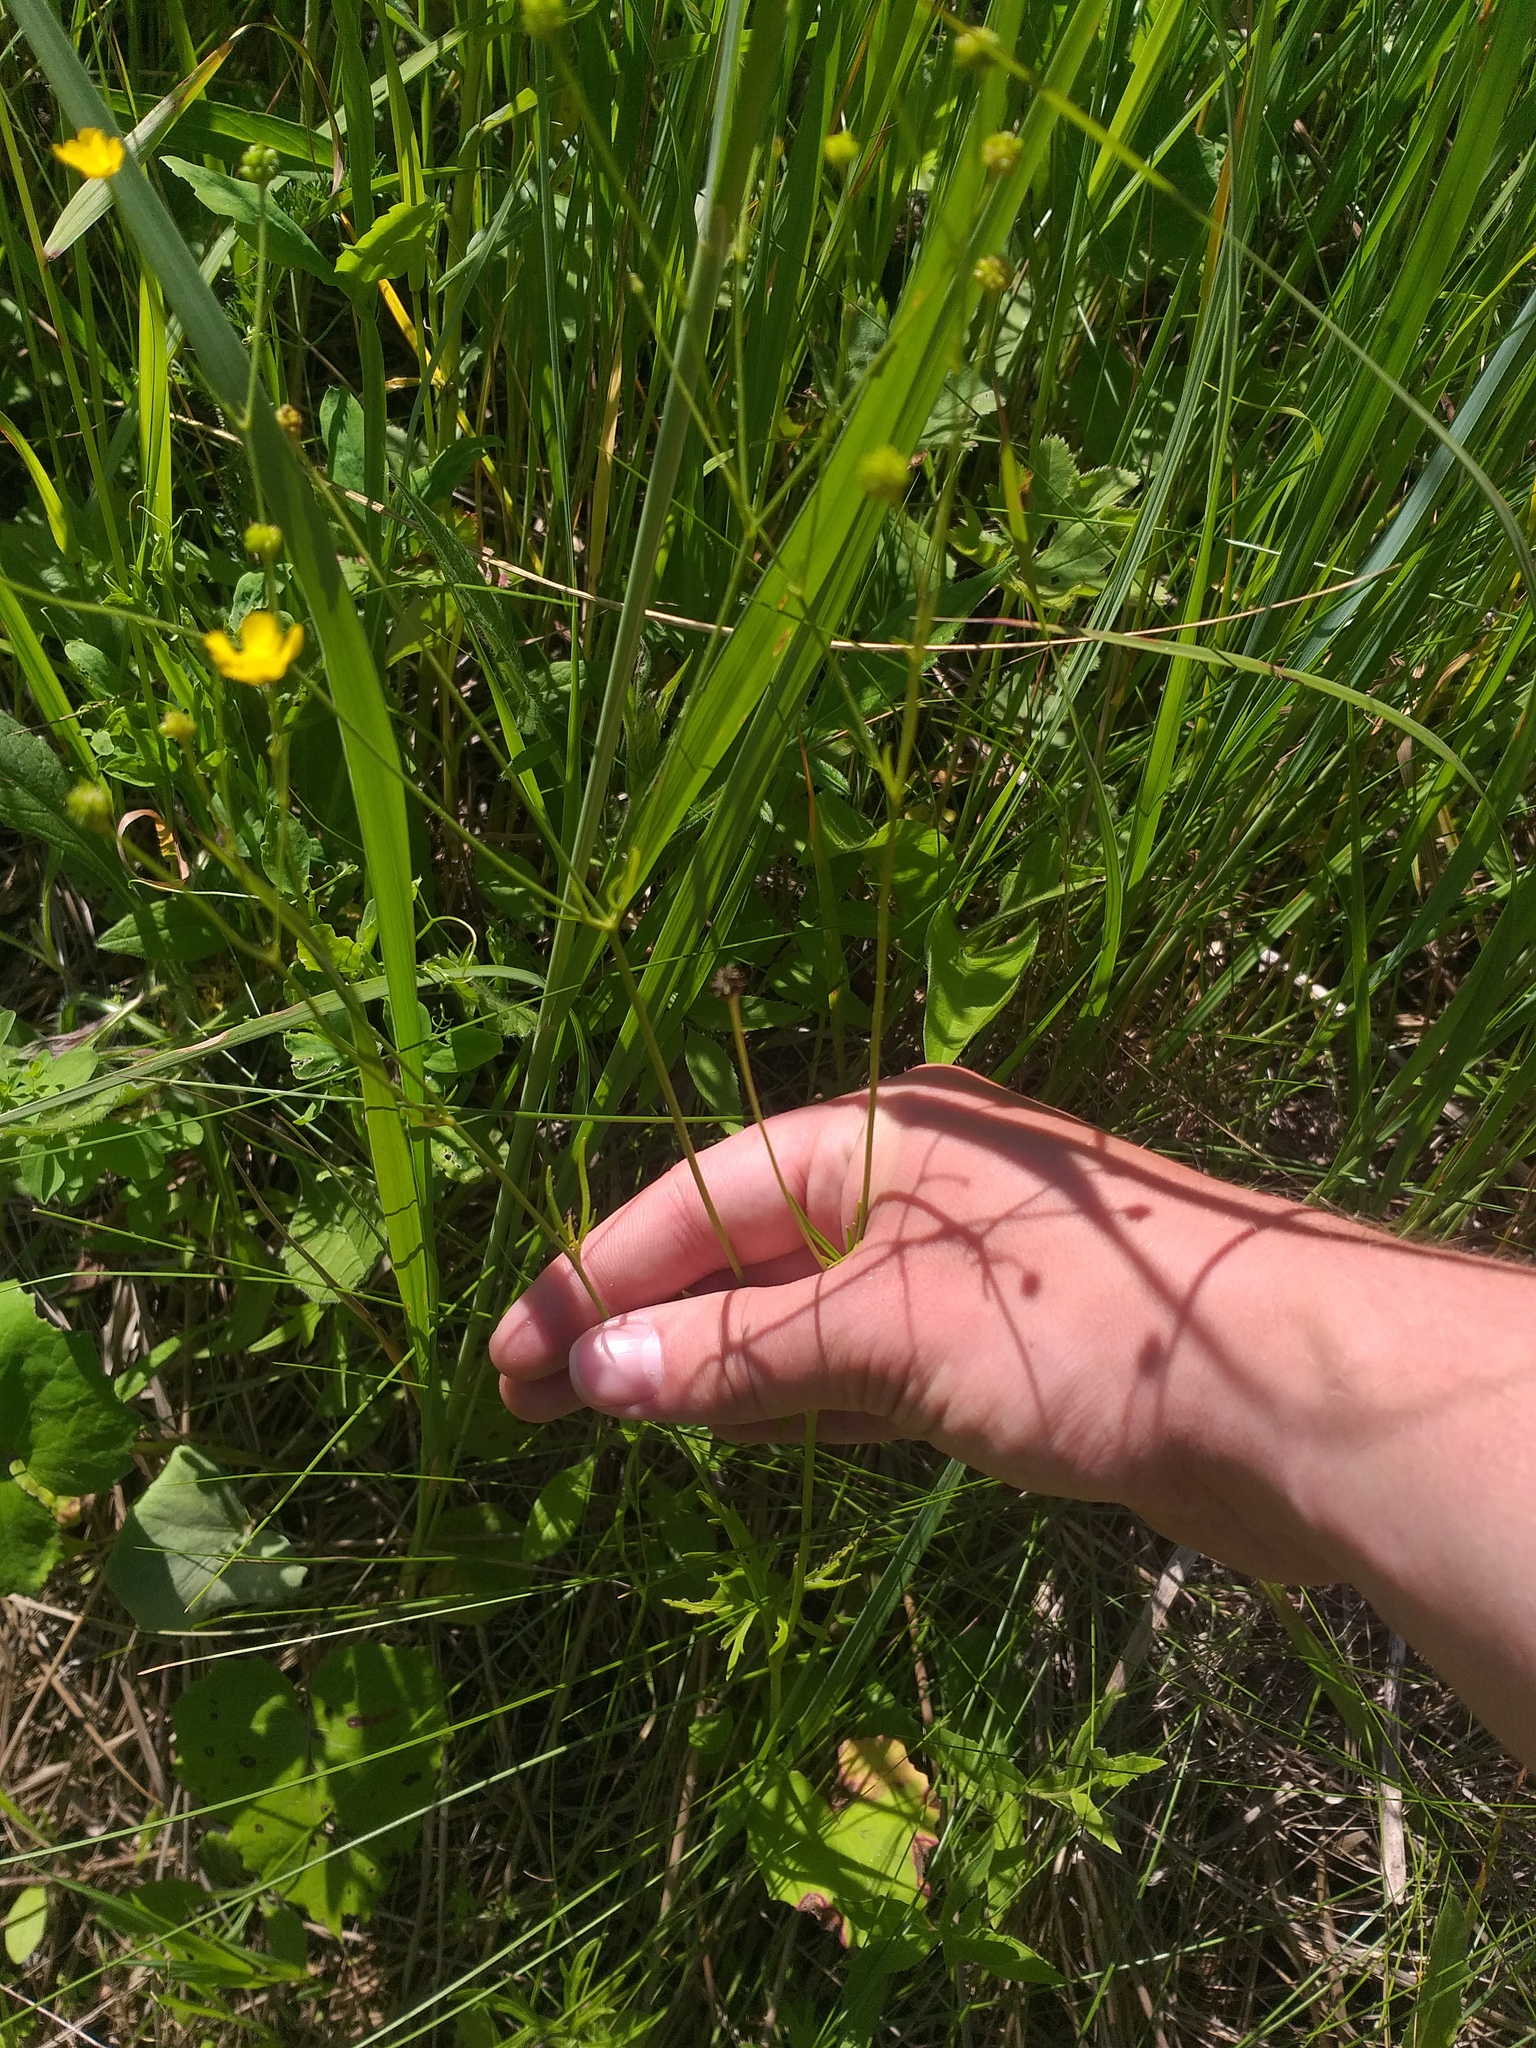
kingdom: Plantae
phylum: Tracheophyta
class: Magnoliopsida
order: Ranunculales
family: Ranunculaceae
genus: Ranunculus
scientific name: Ranunculus acris
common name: Meadow buttercup
